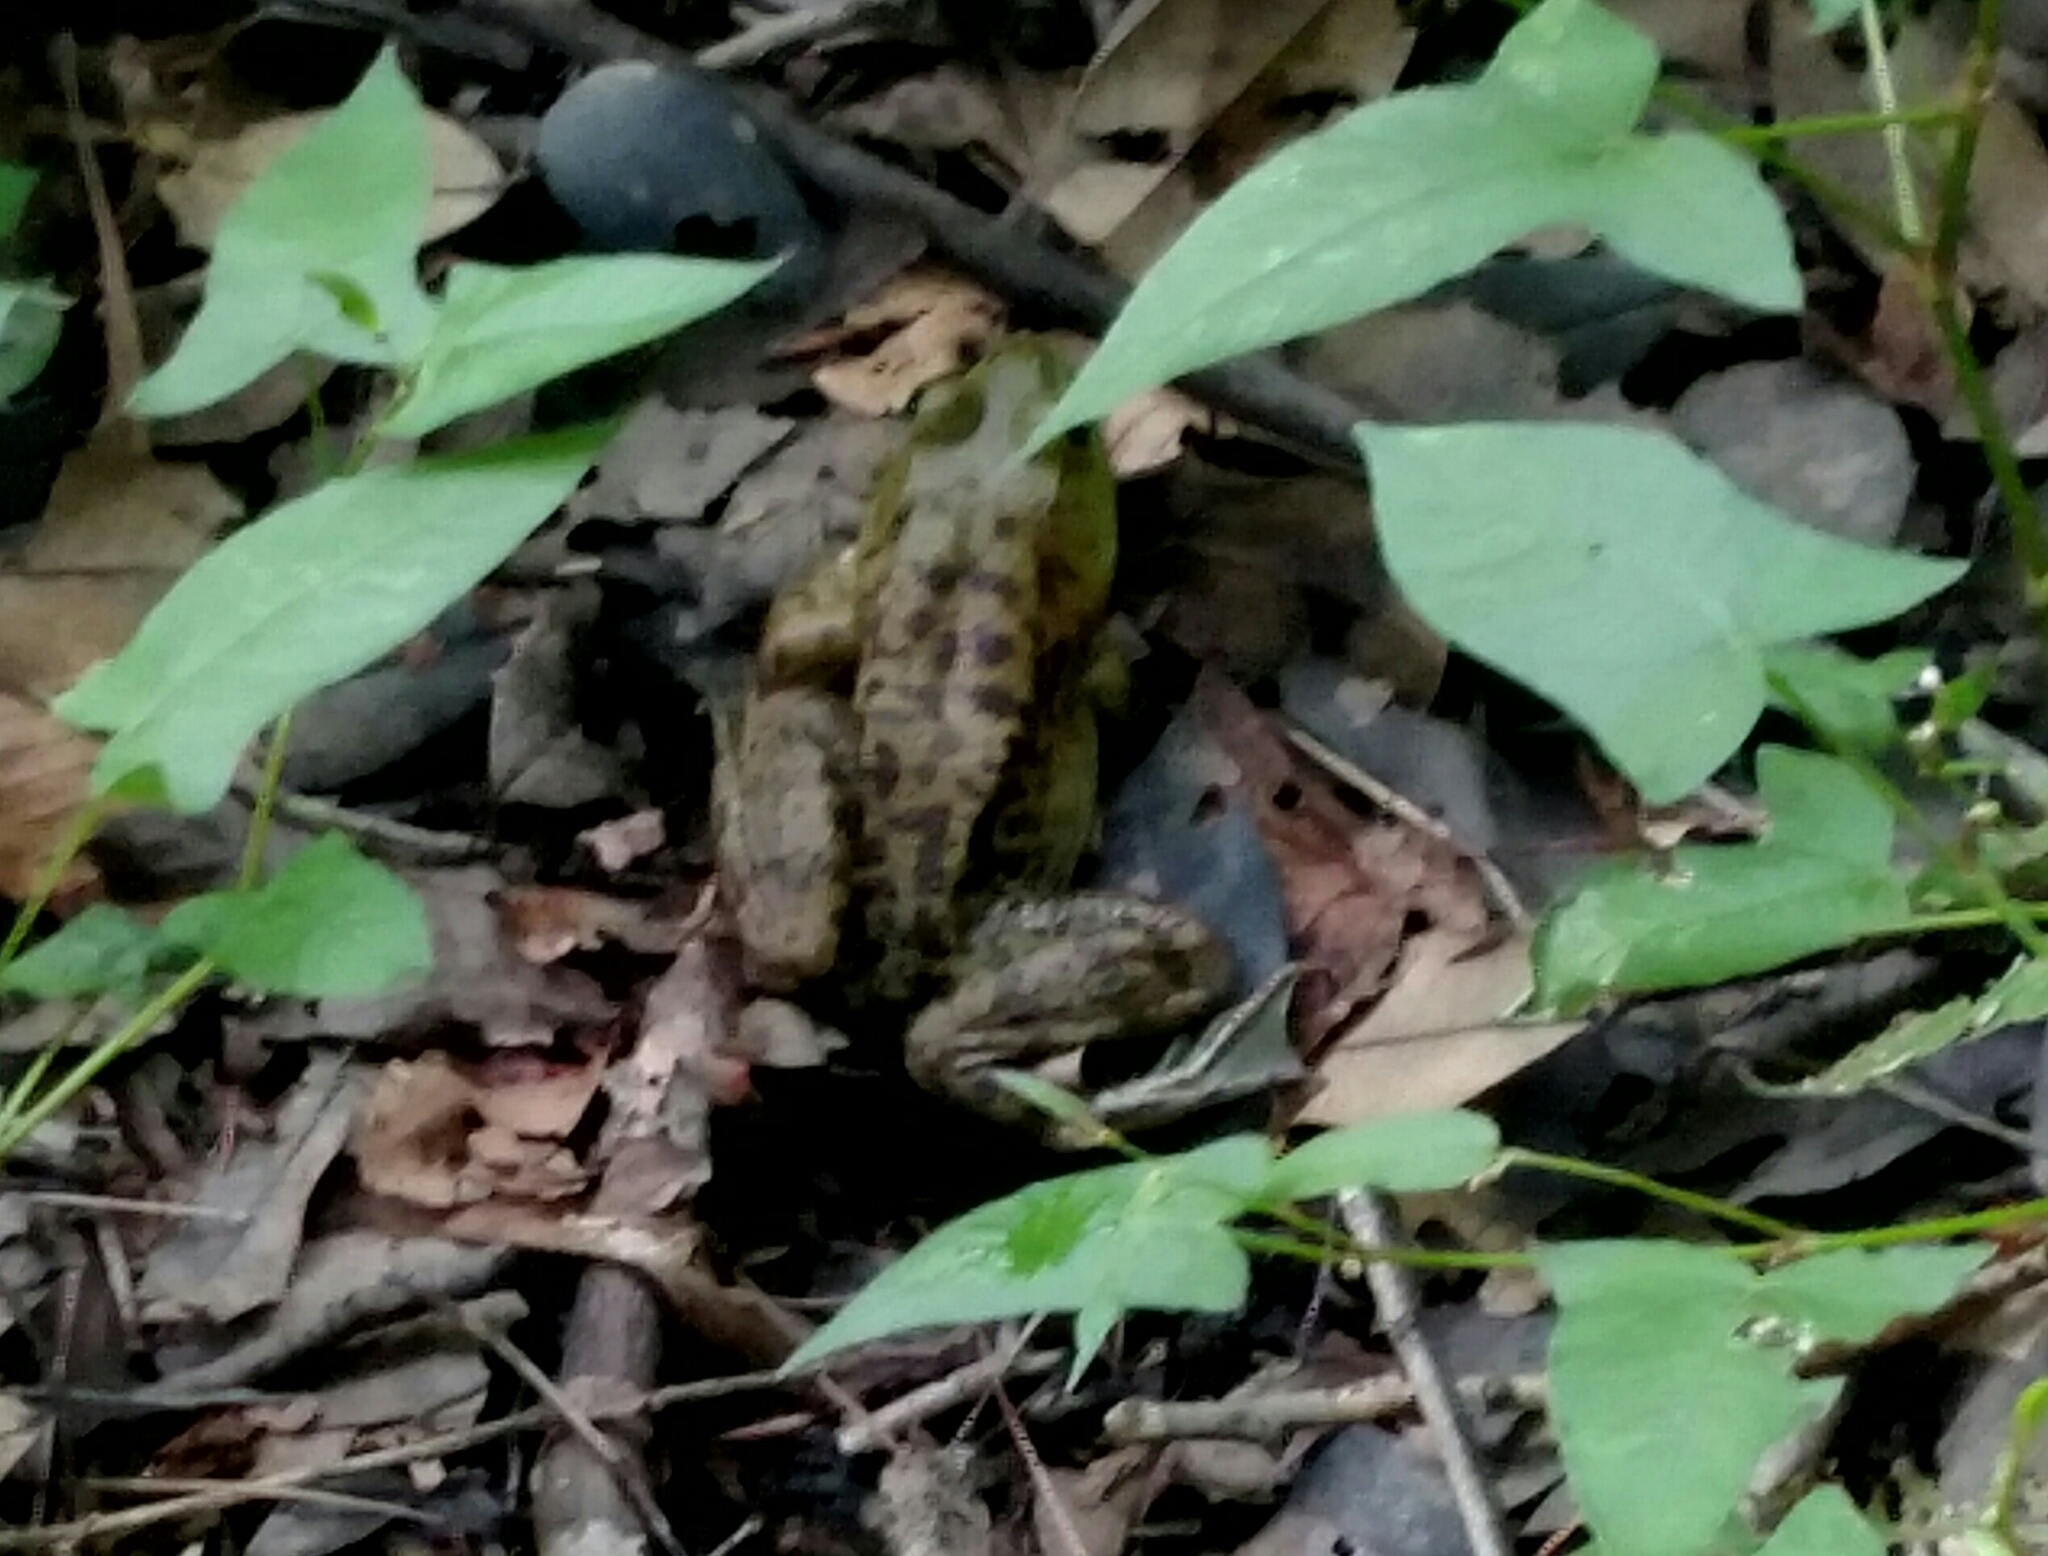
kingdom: Animalia
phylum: Chordata
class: Amphibia
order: Anura
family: Ranidae
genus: Lithobates
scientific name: Lithobates catesbeianus
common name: American bullfrog
